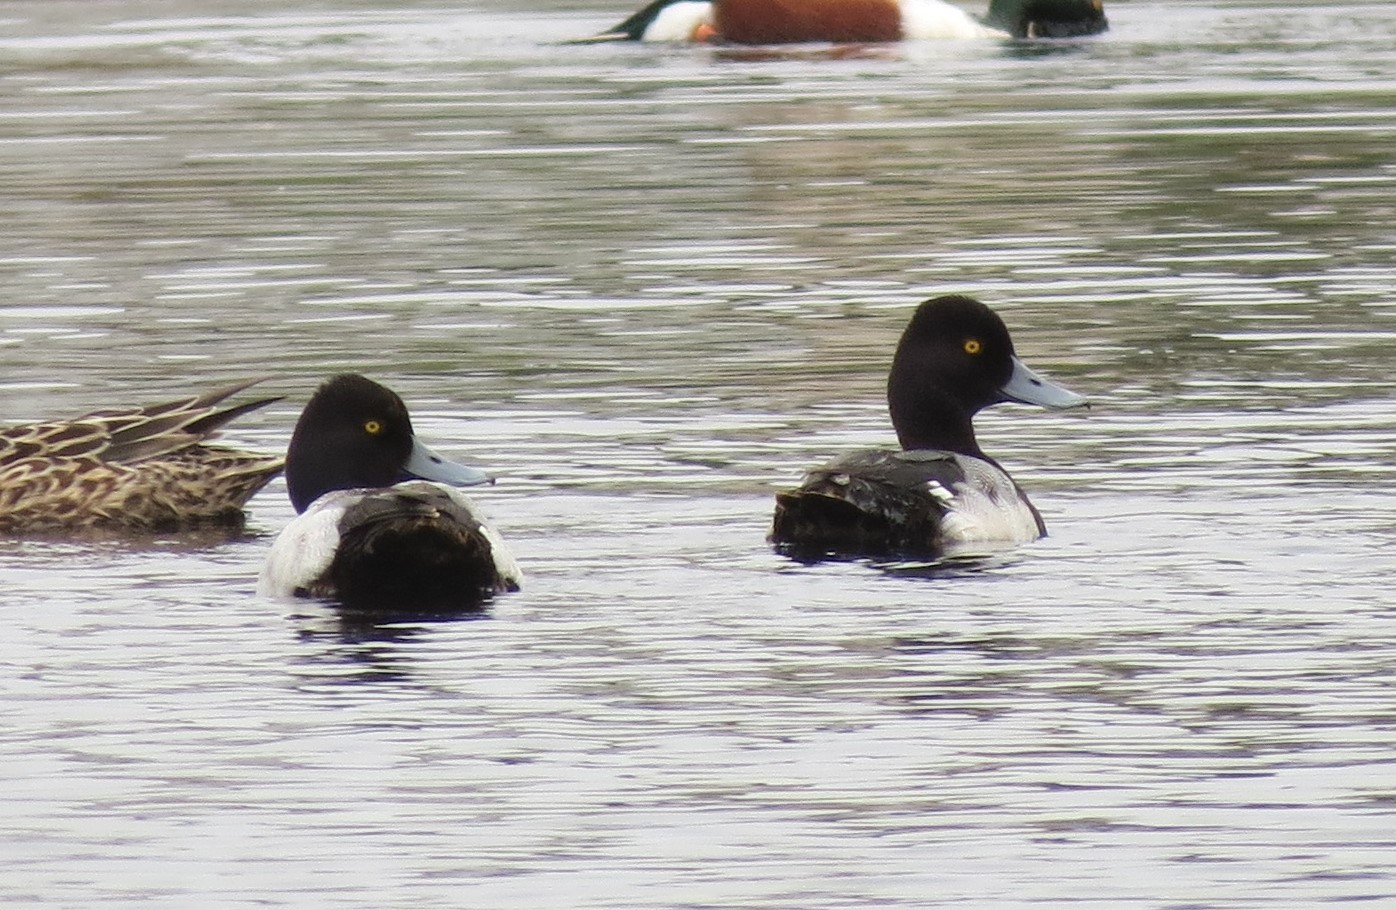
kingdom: Animalia
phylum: Chordata
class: Aves
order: Anseriformes
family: Anatidae
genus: Aythya
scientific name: Aythya affinis
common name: Lesser scaup
